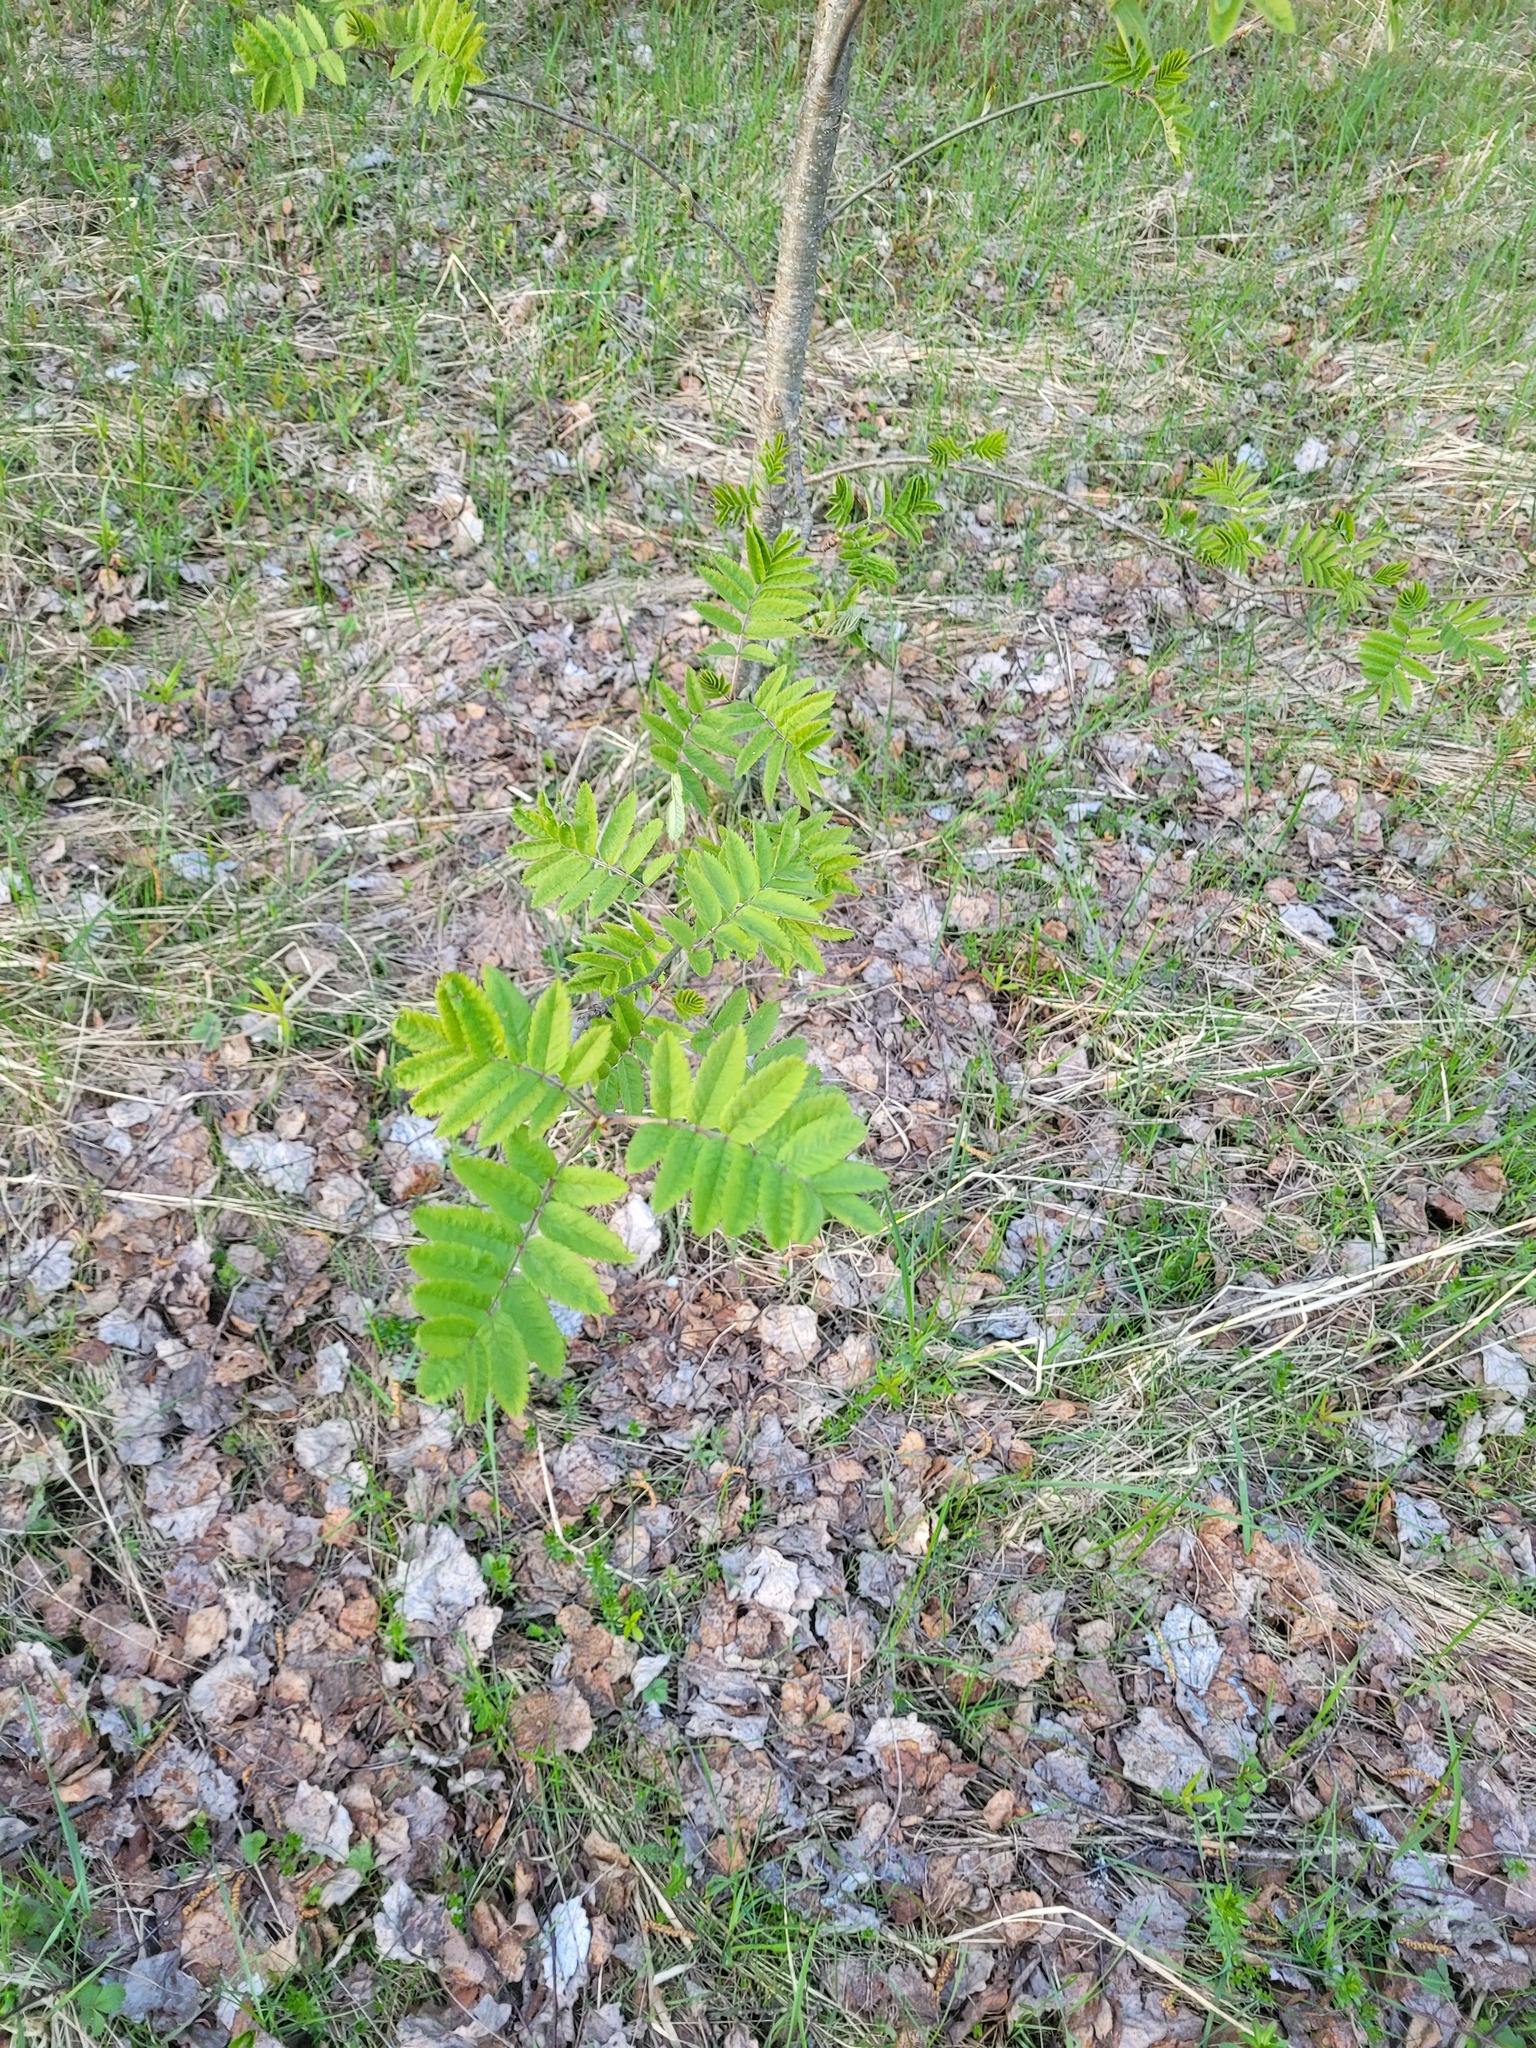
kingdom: Plantae
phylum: Tracheophyta
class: Magnoliopsida
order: Rosales
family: Rosaceae
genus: Sorbus
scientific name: Sorbus aucuparia
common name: Rowan
